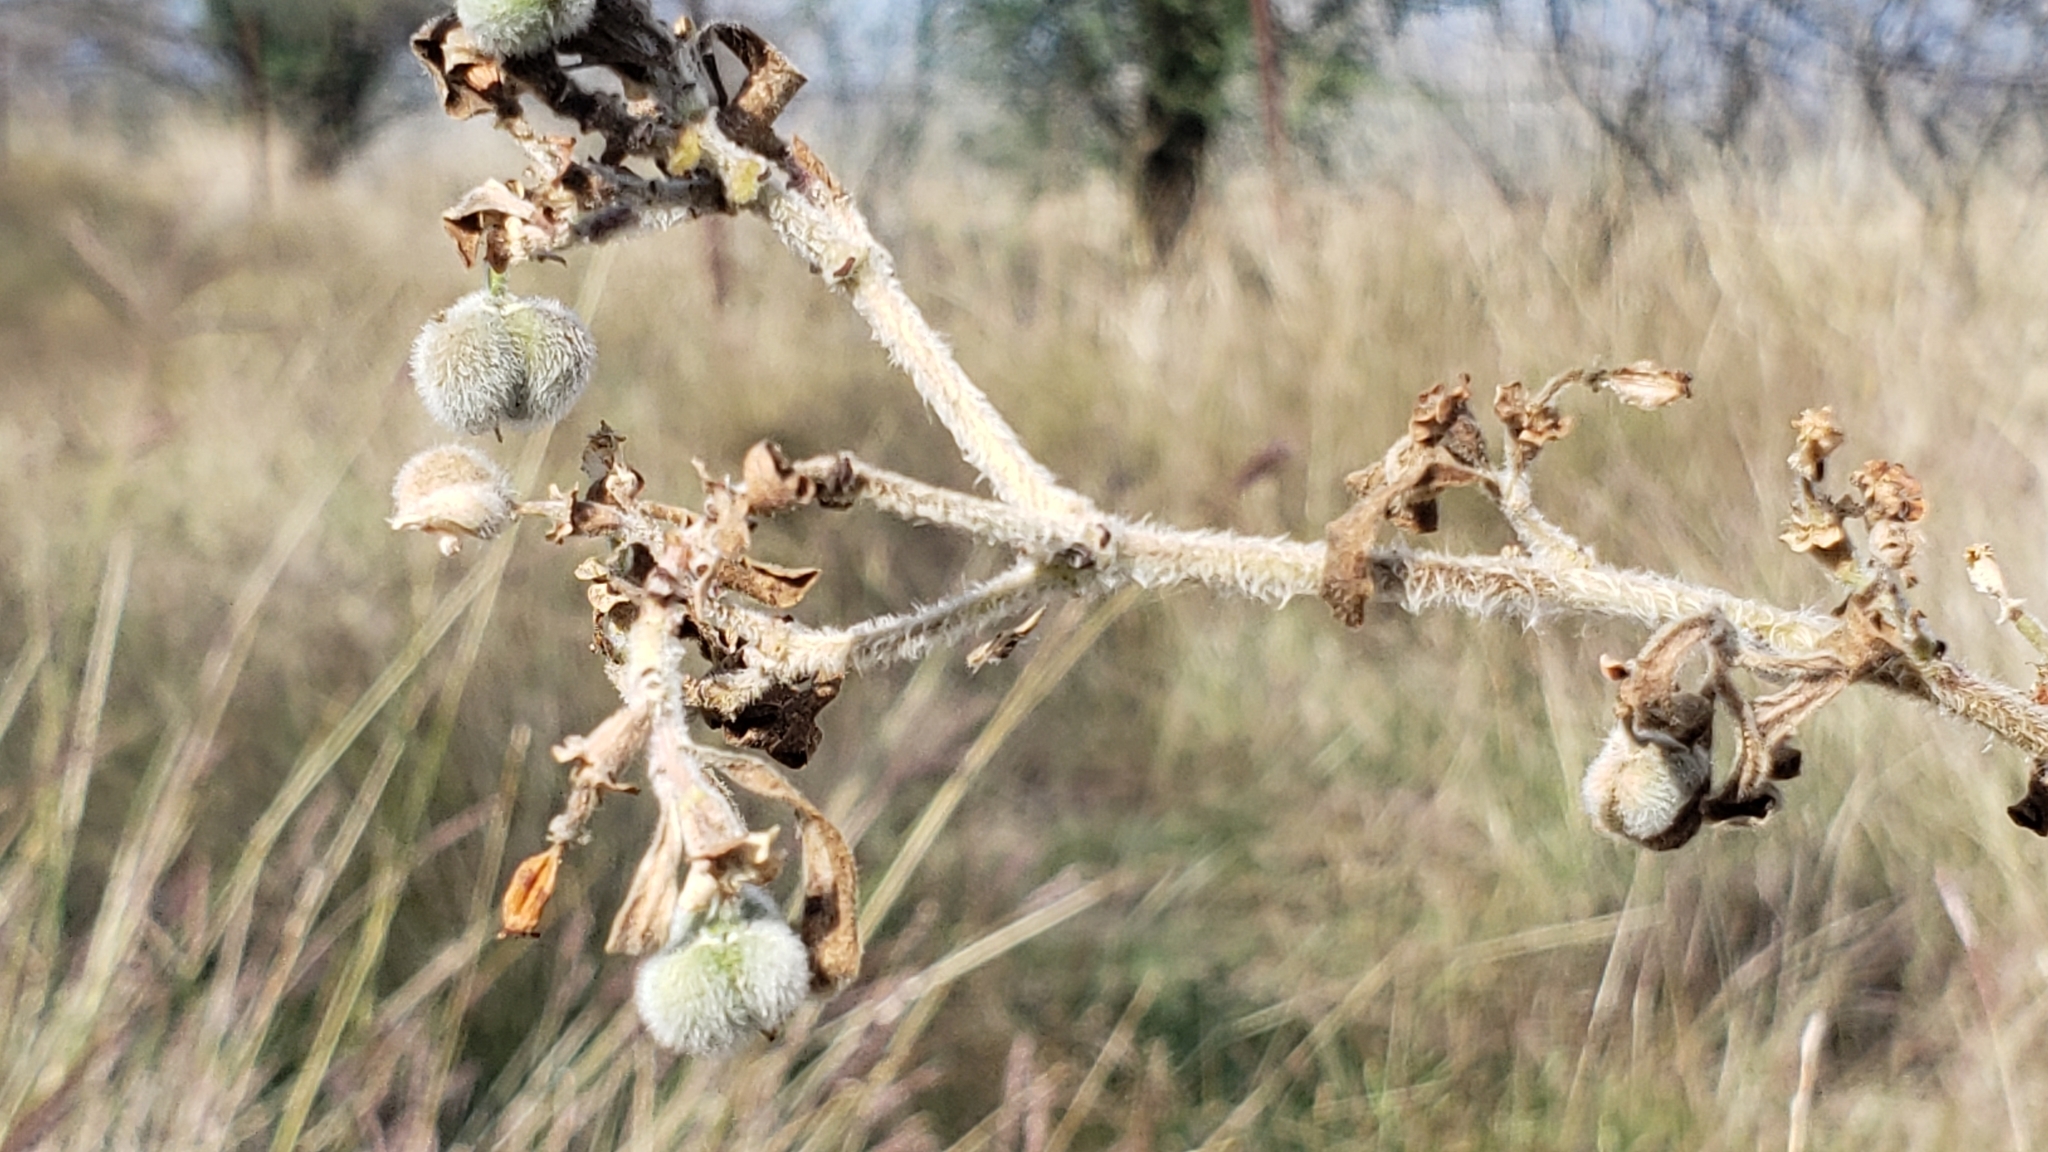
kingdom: Plantae
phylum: Tracheophyta
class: Magnoliopsida
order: Malpighiales
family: Euphorbiaceae
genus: Euphorbia
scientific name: Euphorbia bicolor
